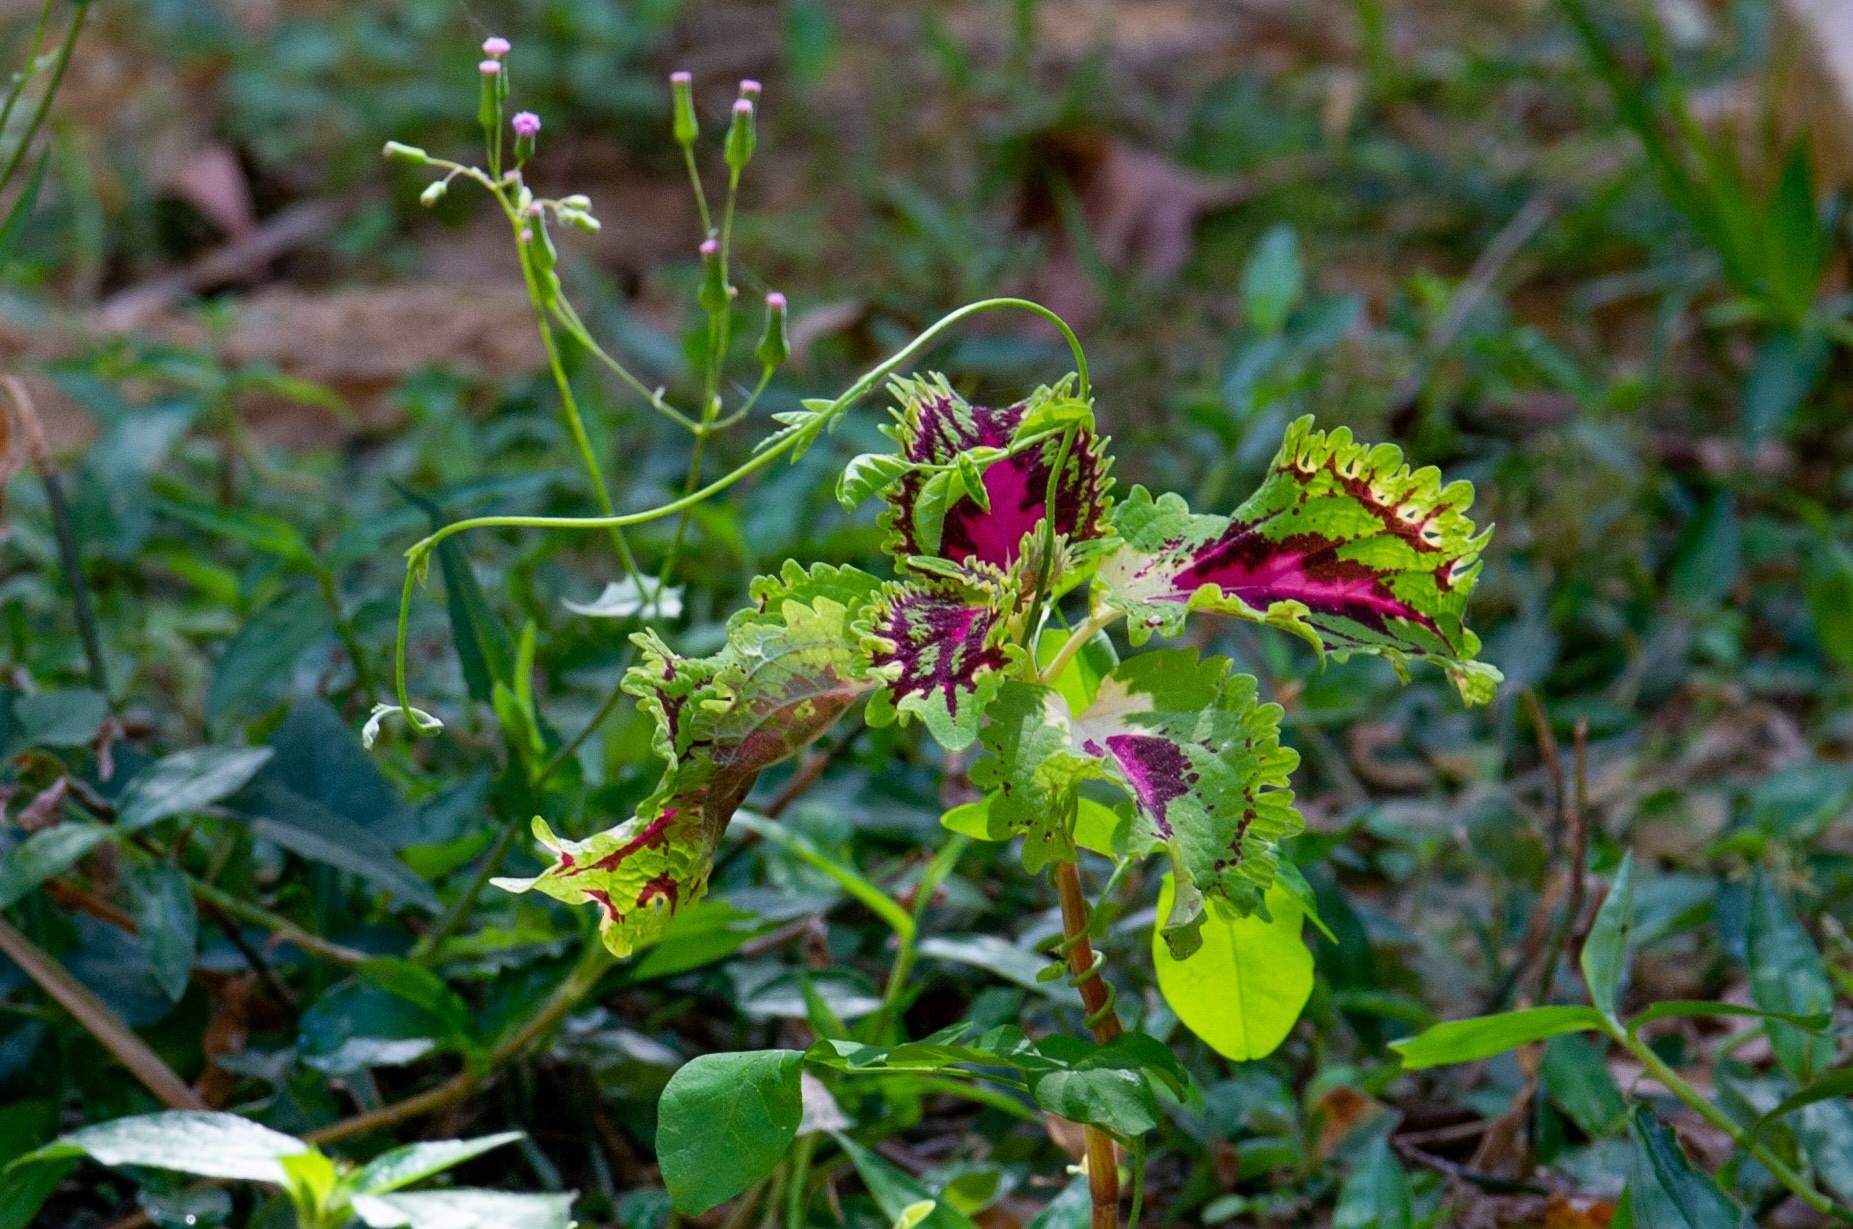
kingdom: Plantae
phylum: Tracheophyta
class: Magnoliopsida
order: Lamiales
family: Lamiaceae
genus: Coleus
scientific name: Coleus scutellarioides
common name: Coleus
